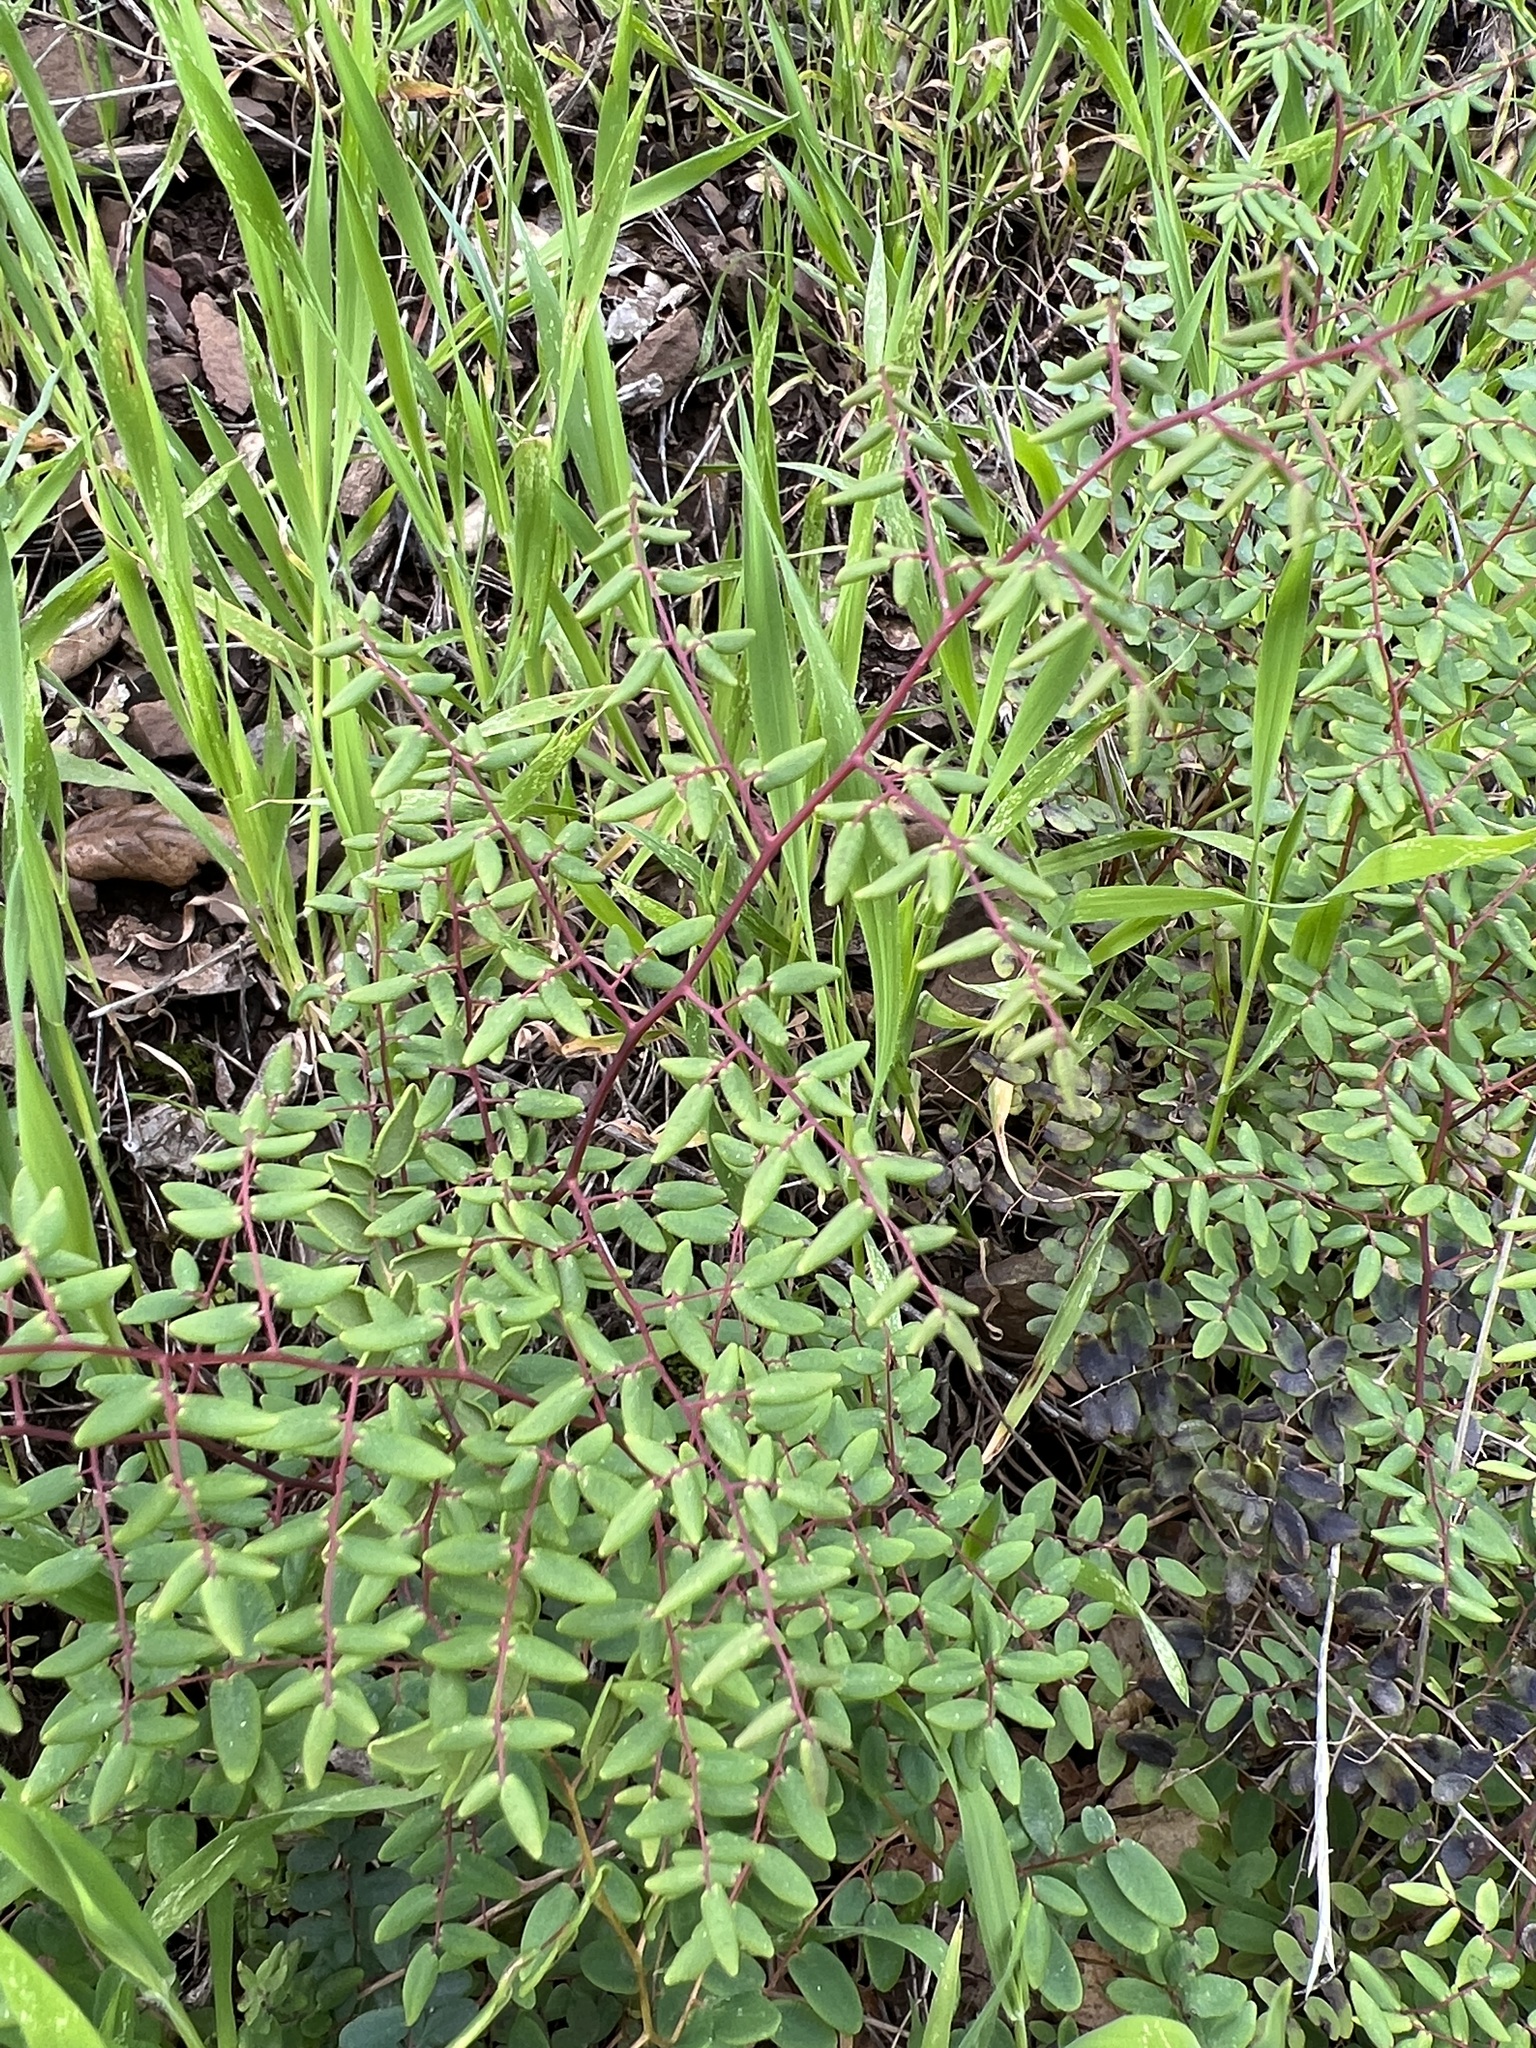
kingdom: Plantae
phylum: Tracheophyta
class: Polypodiopsida
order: Polypodiales
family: Pteridaceae
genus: Pellaea
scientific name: Pellaea andromedifolia
